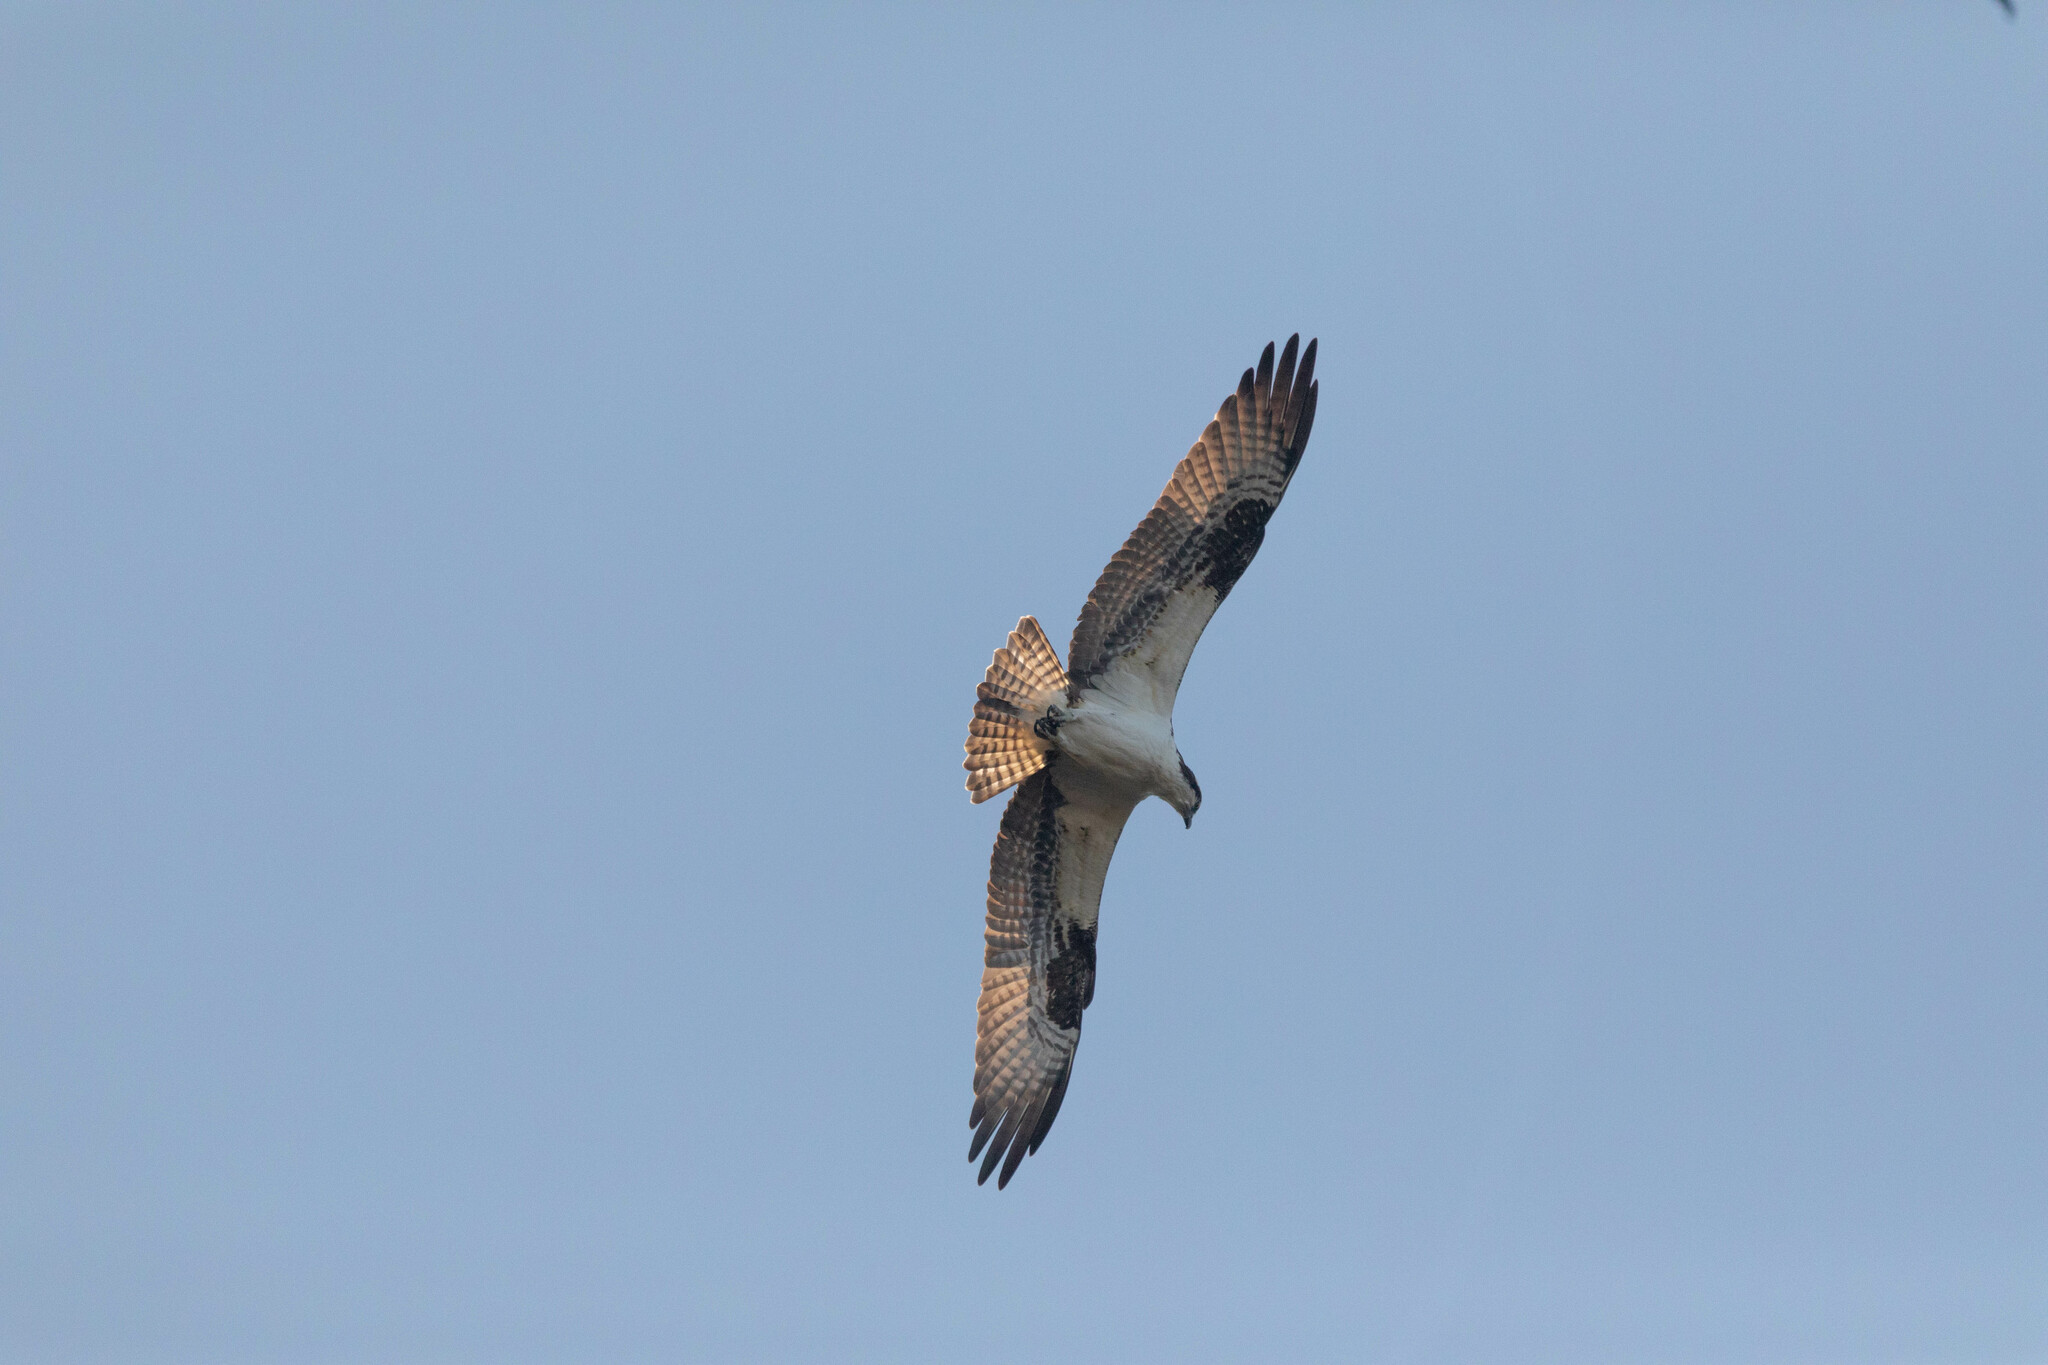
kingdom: Animalia
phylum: Chordata
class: Aves
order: Accipitriformes
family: Pandionidae
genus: Pandion
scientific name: Pandion haliaetus
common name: Osprey
